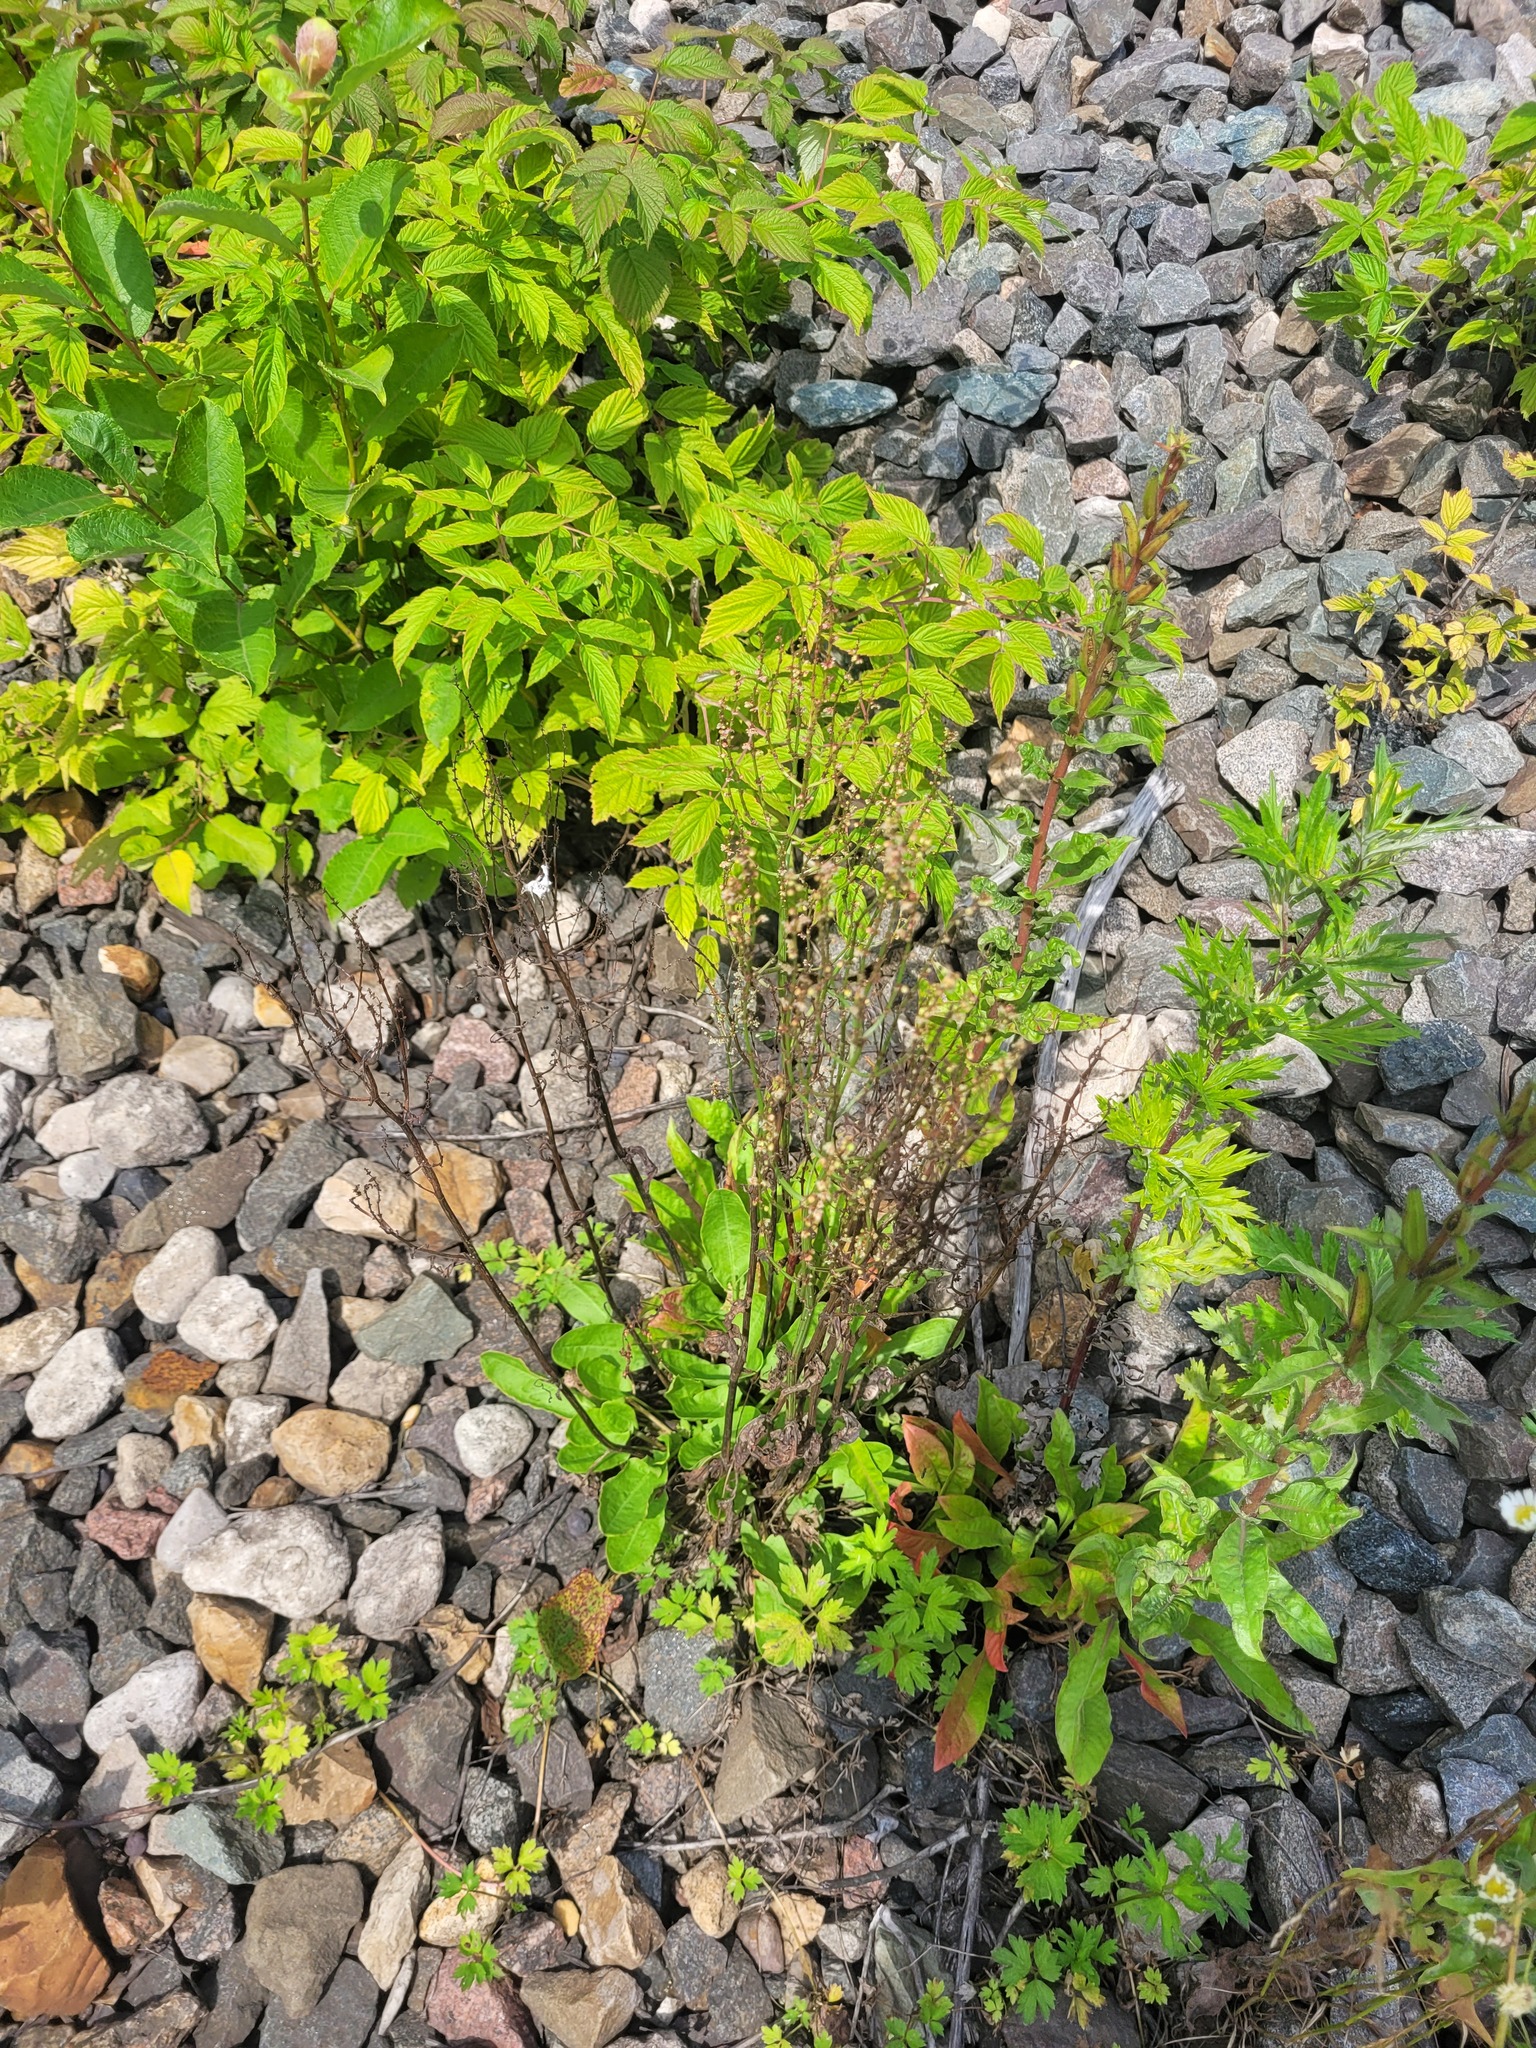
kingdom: Plantae
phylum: Tracheophyta
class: Magnoliopsida
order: Caryophyllales
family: Polygonaceae
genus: Rumex
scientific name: Rumex acetosa
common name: Garden sorrel
